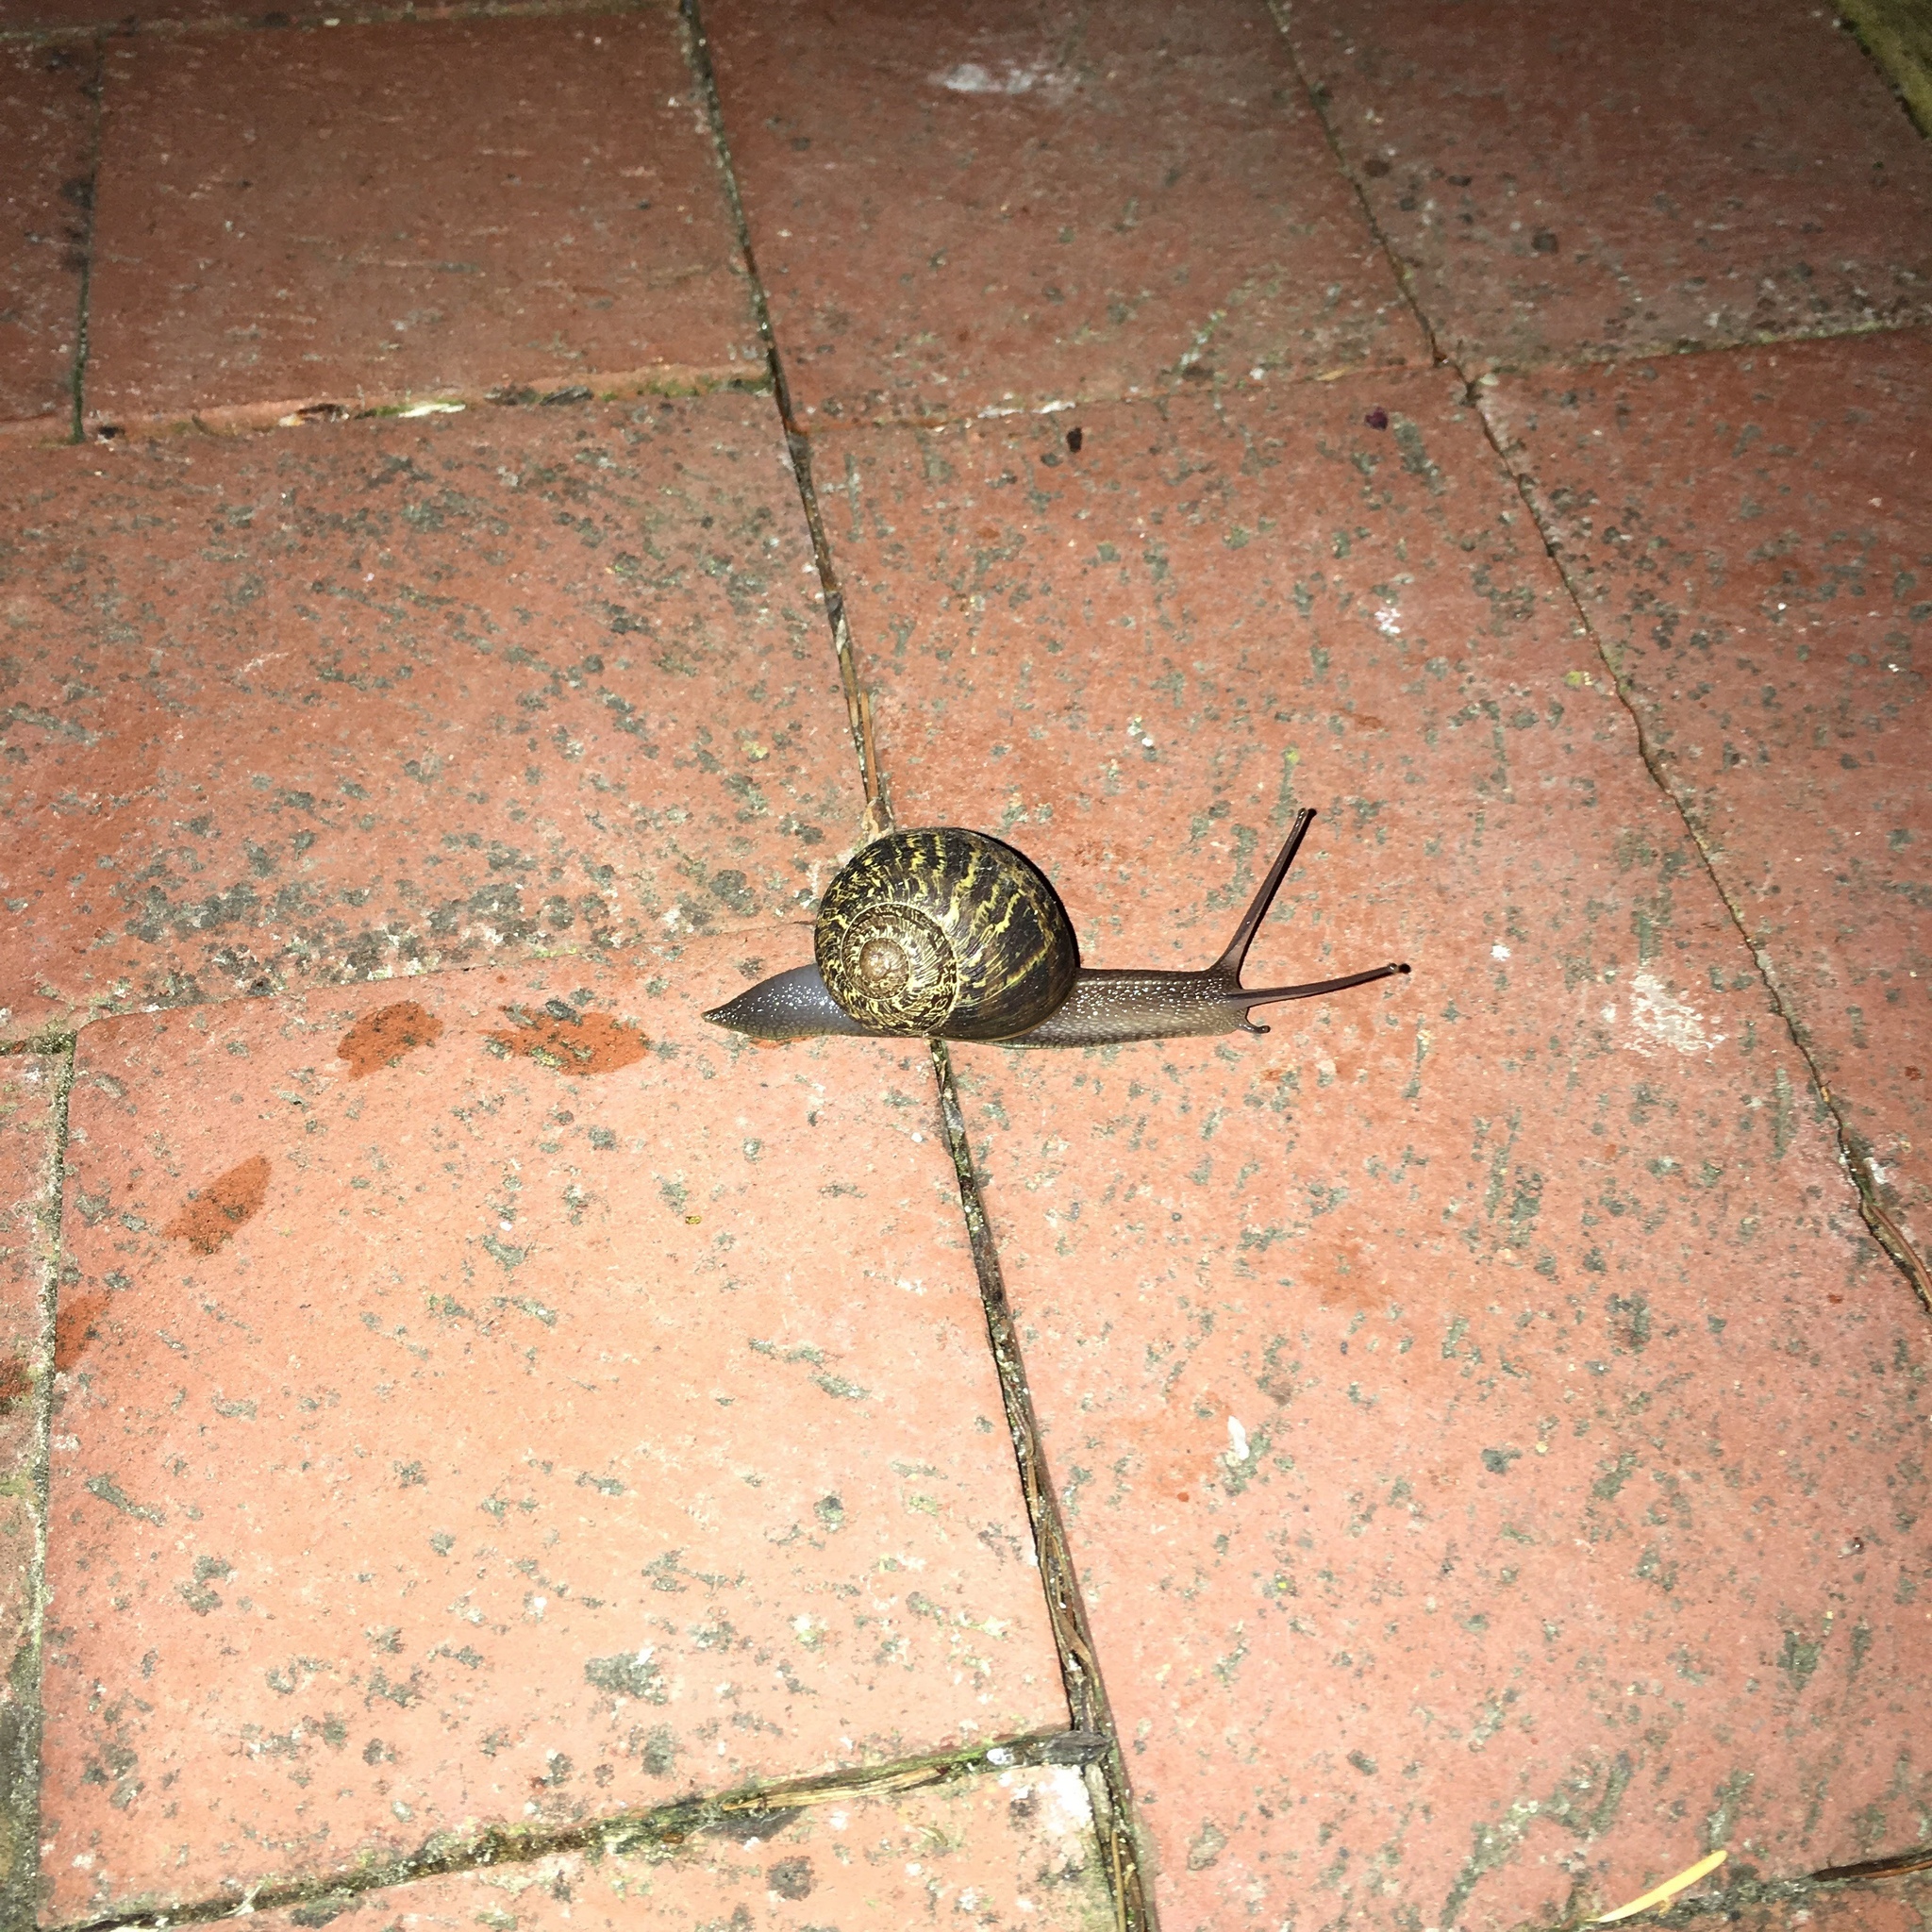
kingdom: Animalia
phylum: Mollusca
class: Gastropoda
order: Stylommatophora
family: Helicidae
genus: Cornu
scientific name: Cornu aspersum
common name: Brown garden snail
